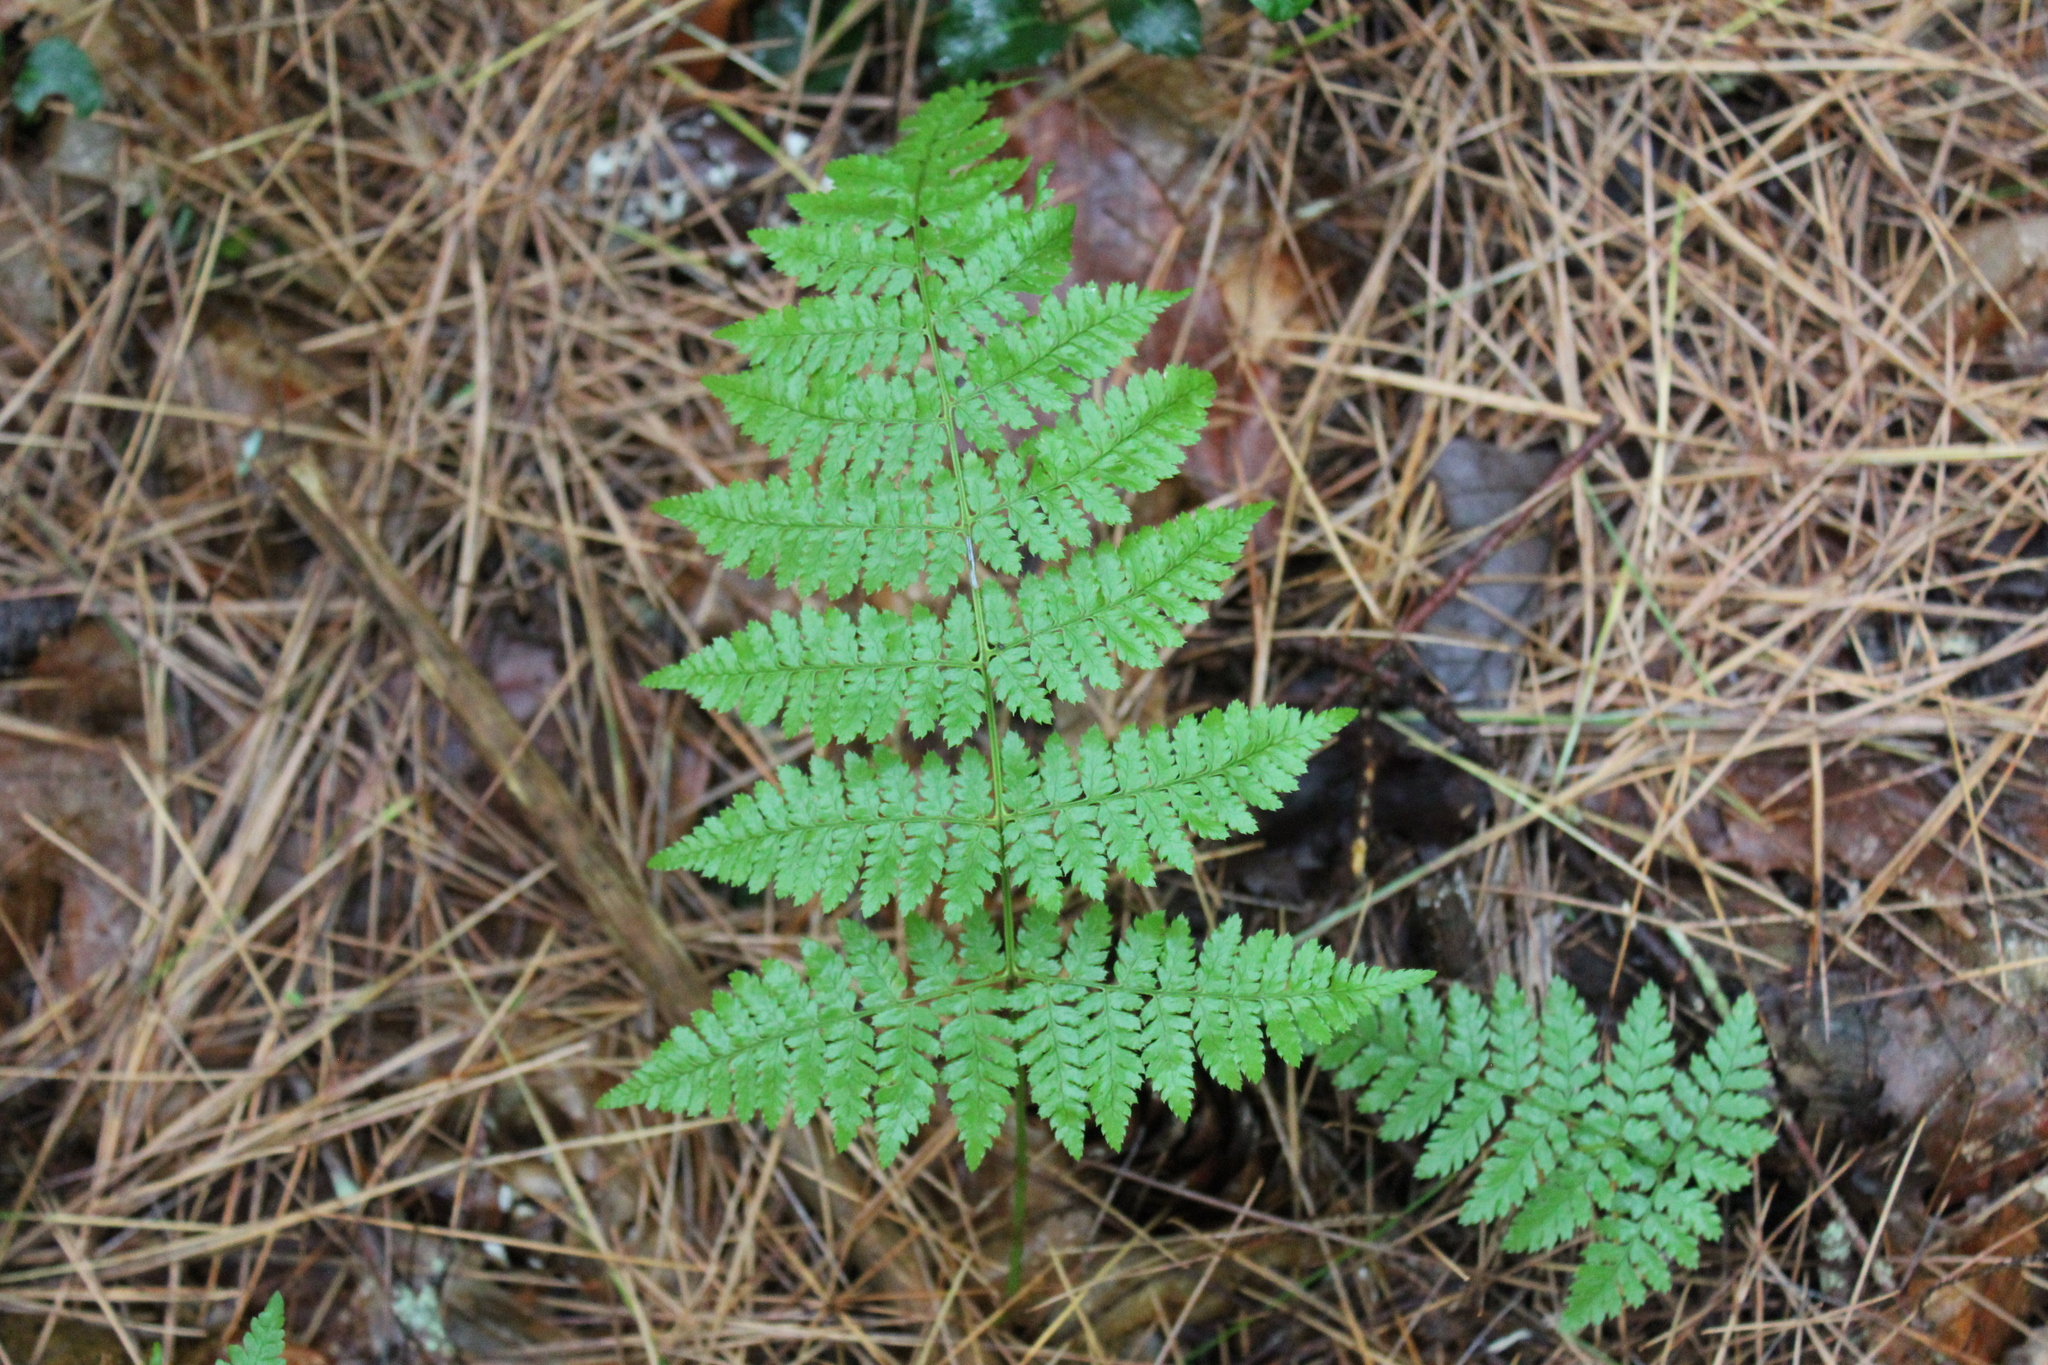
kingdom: Plantae
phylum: Tracheophyta
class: Polypodiopsida
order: Polypodiales
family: Dryopteridaceae
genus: Dryopteris
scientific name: Dryopteris intermedia
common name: Evergreen wood fern
